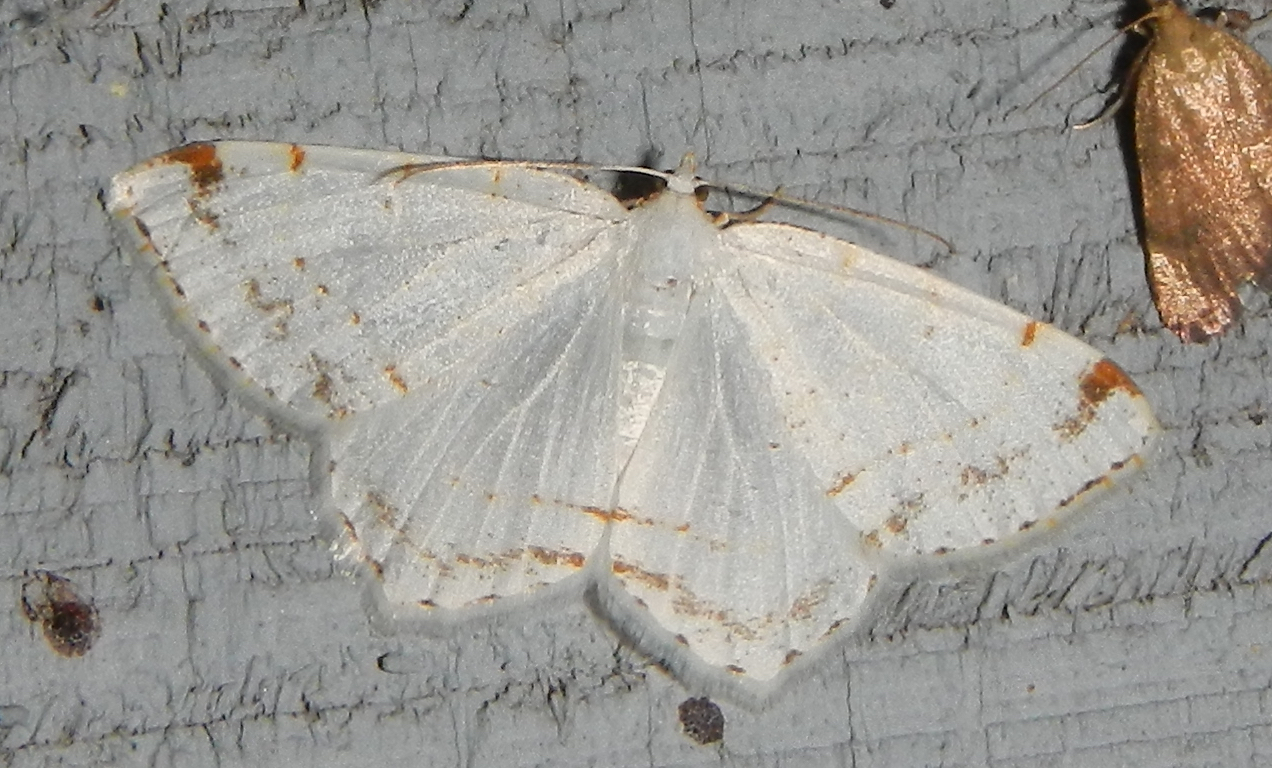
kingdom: Animalia
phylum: Arthropoda
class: Insecta
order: Lepidoptera
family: Geometridae
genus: Macaria
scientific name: Macaria pustularia
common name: Lesser maple spanworm moth
